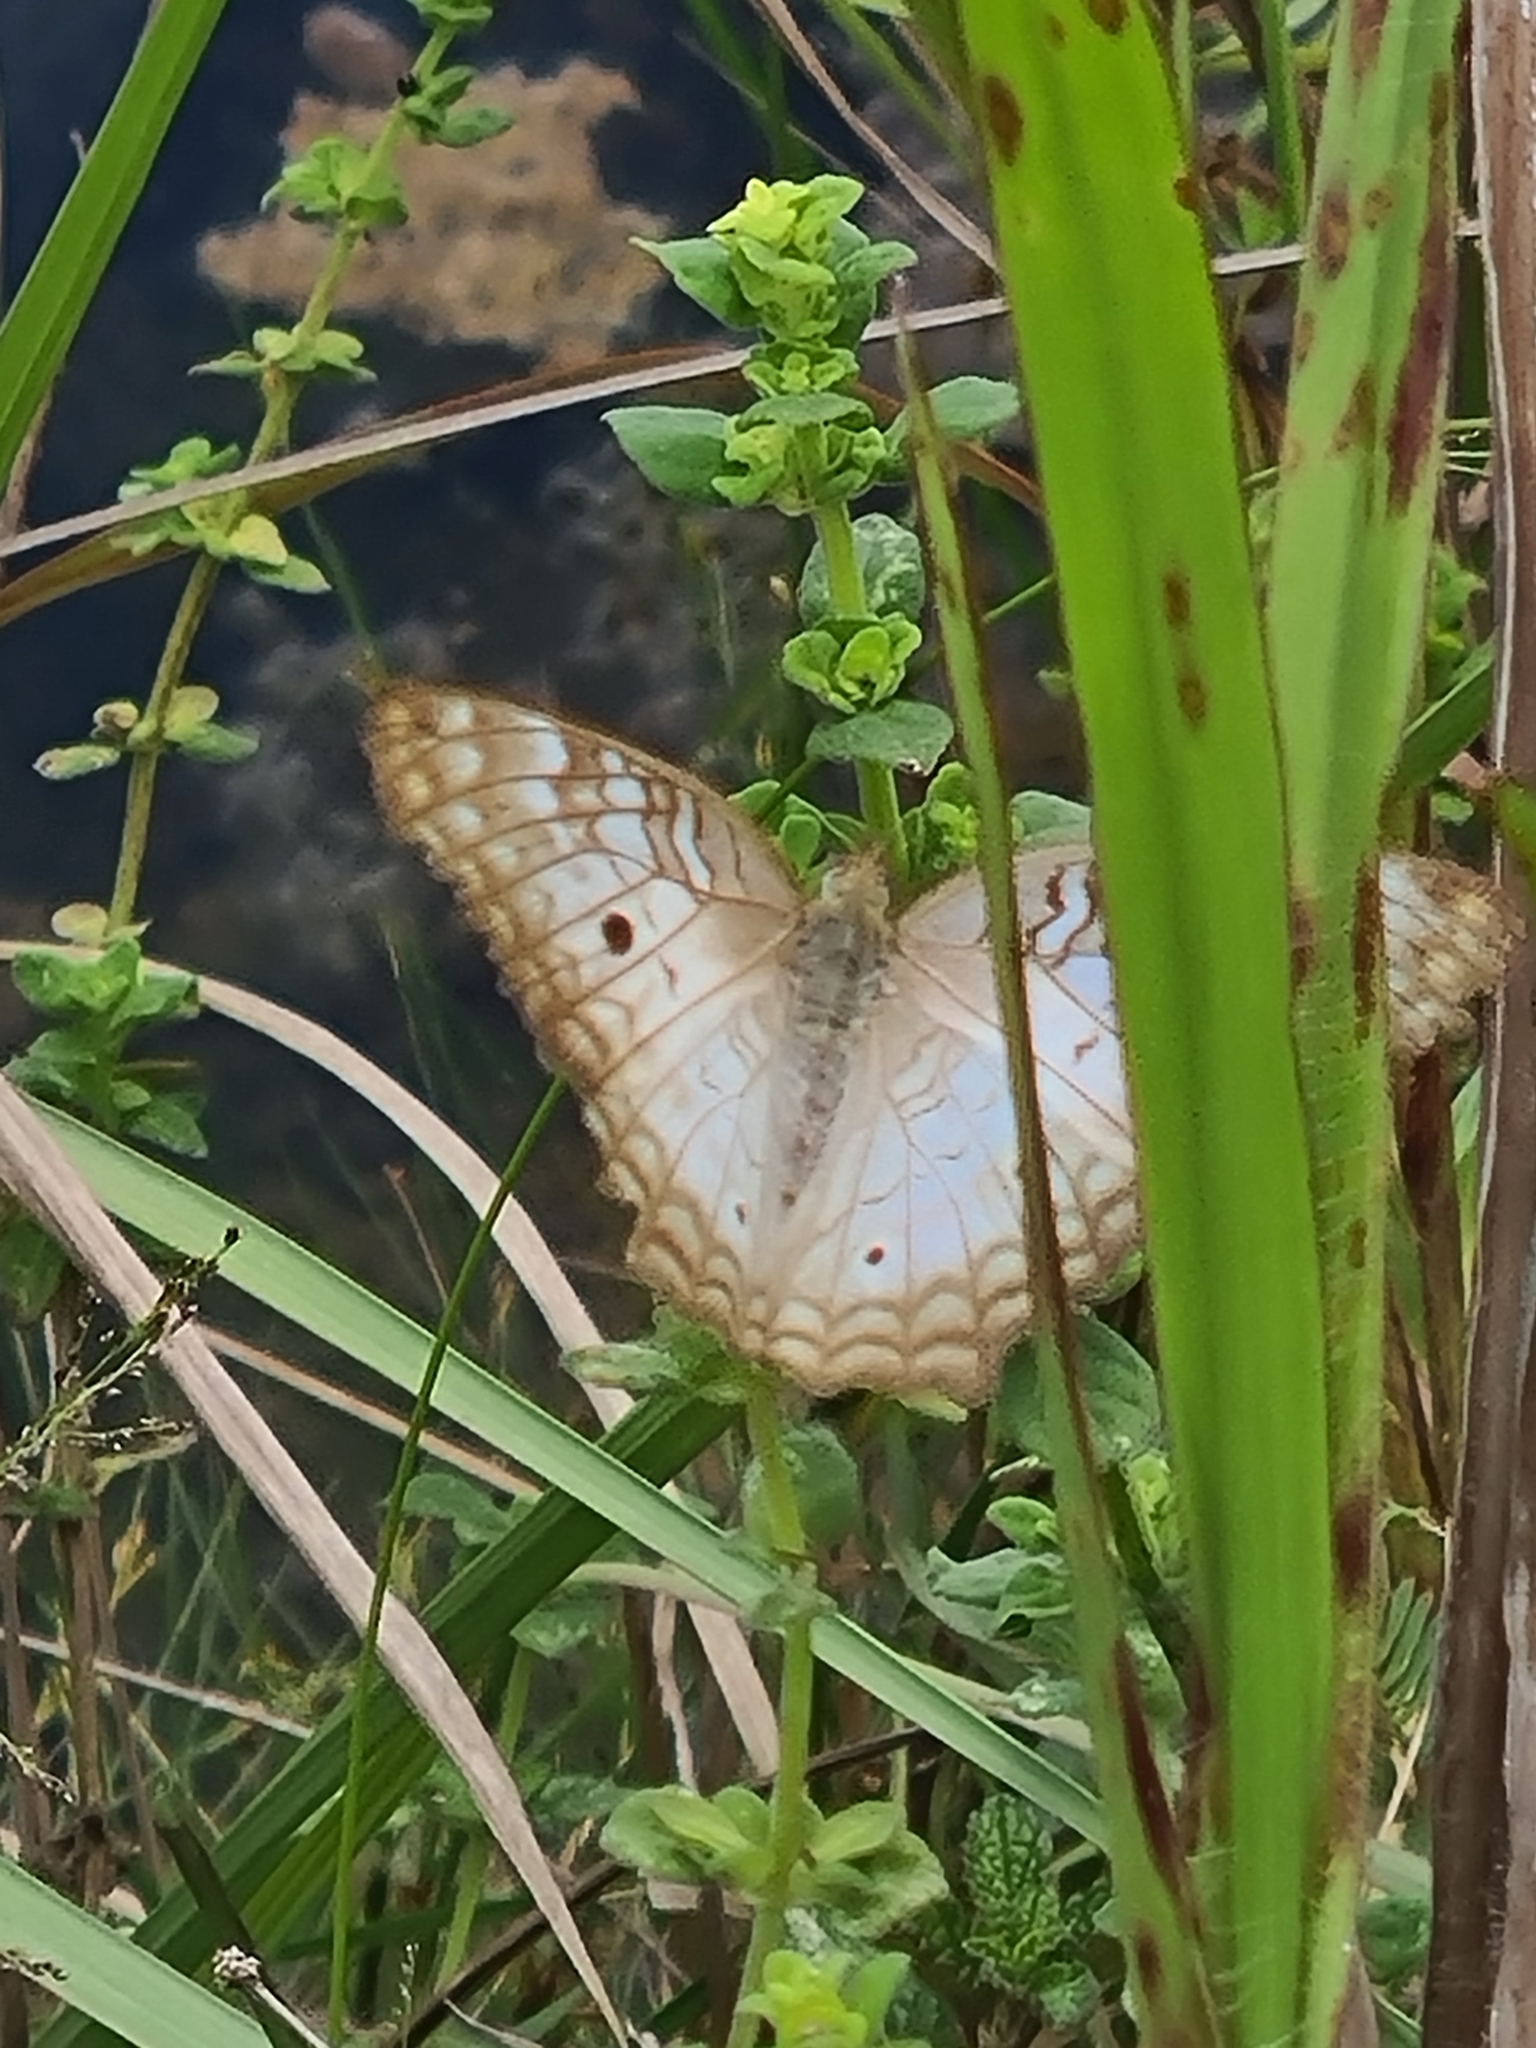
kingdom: Animalia
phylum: Arthropoda
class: Insecta
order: Lepidoptera
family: Nymphalidae
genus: Anartia
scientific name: Anartia jatrophae
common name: White peacock
